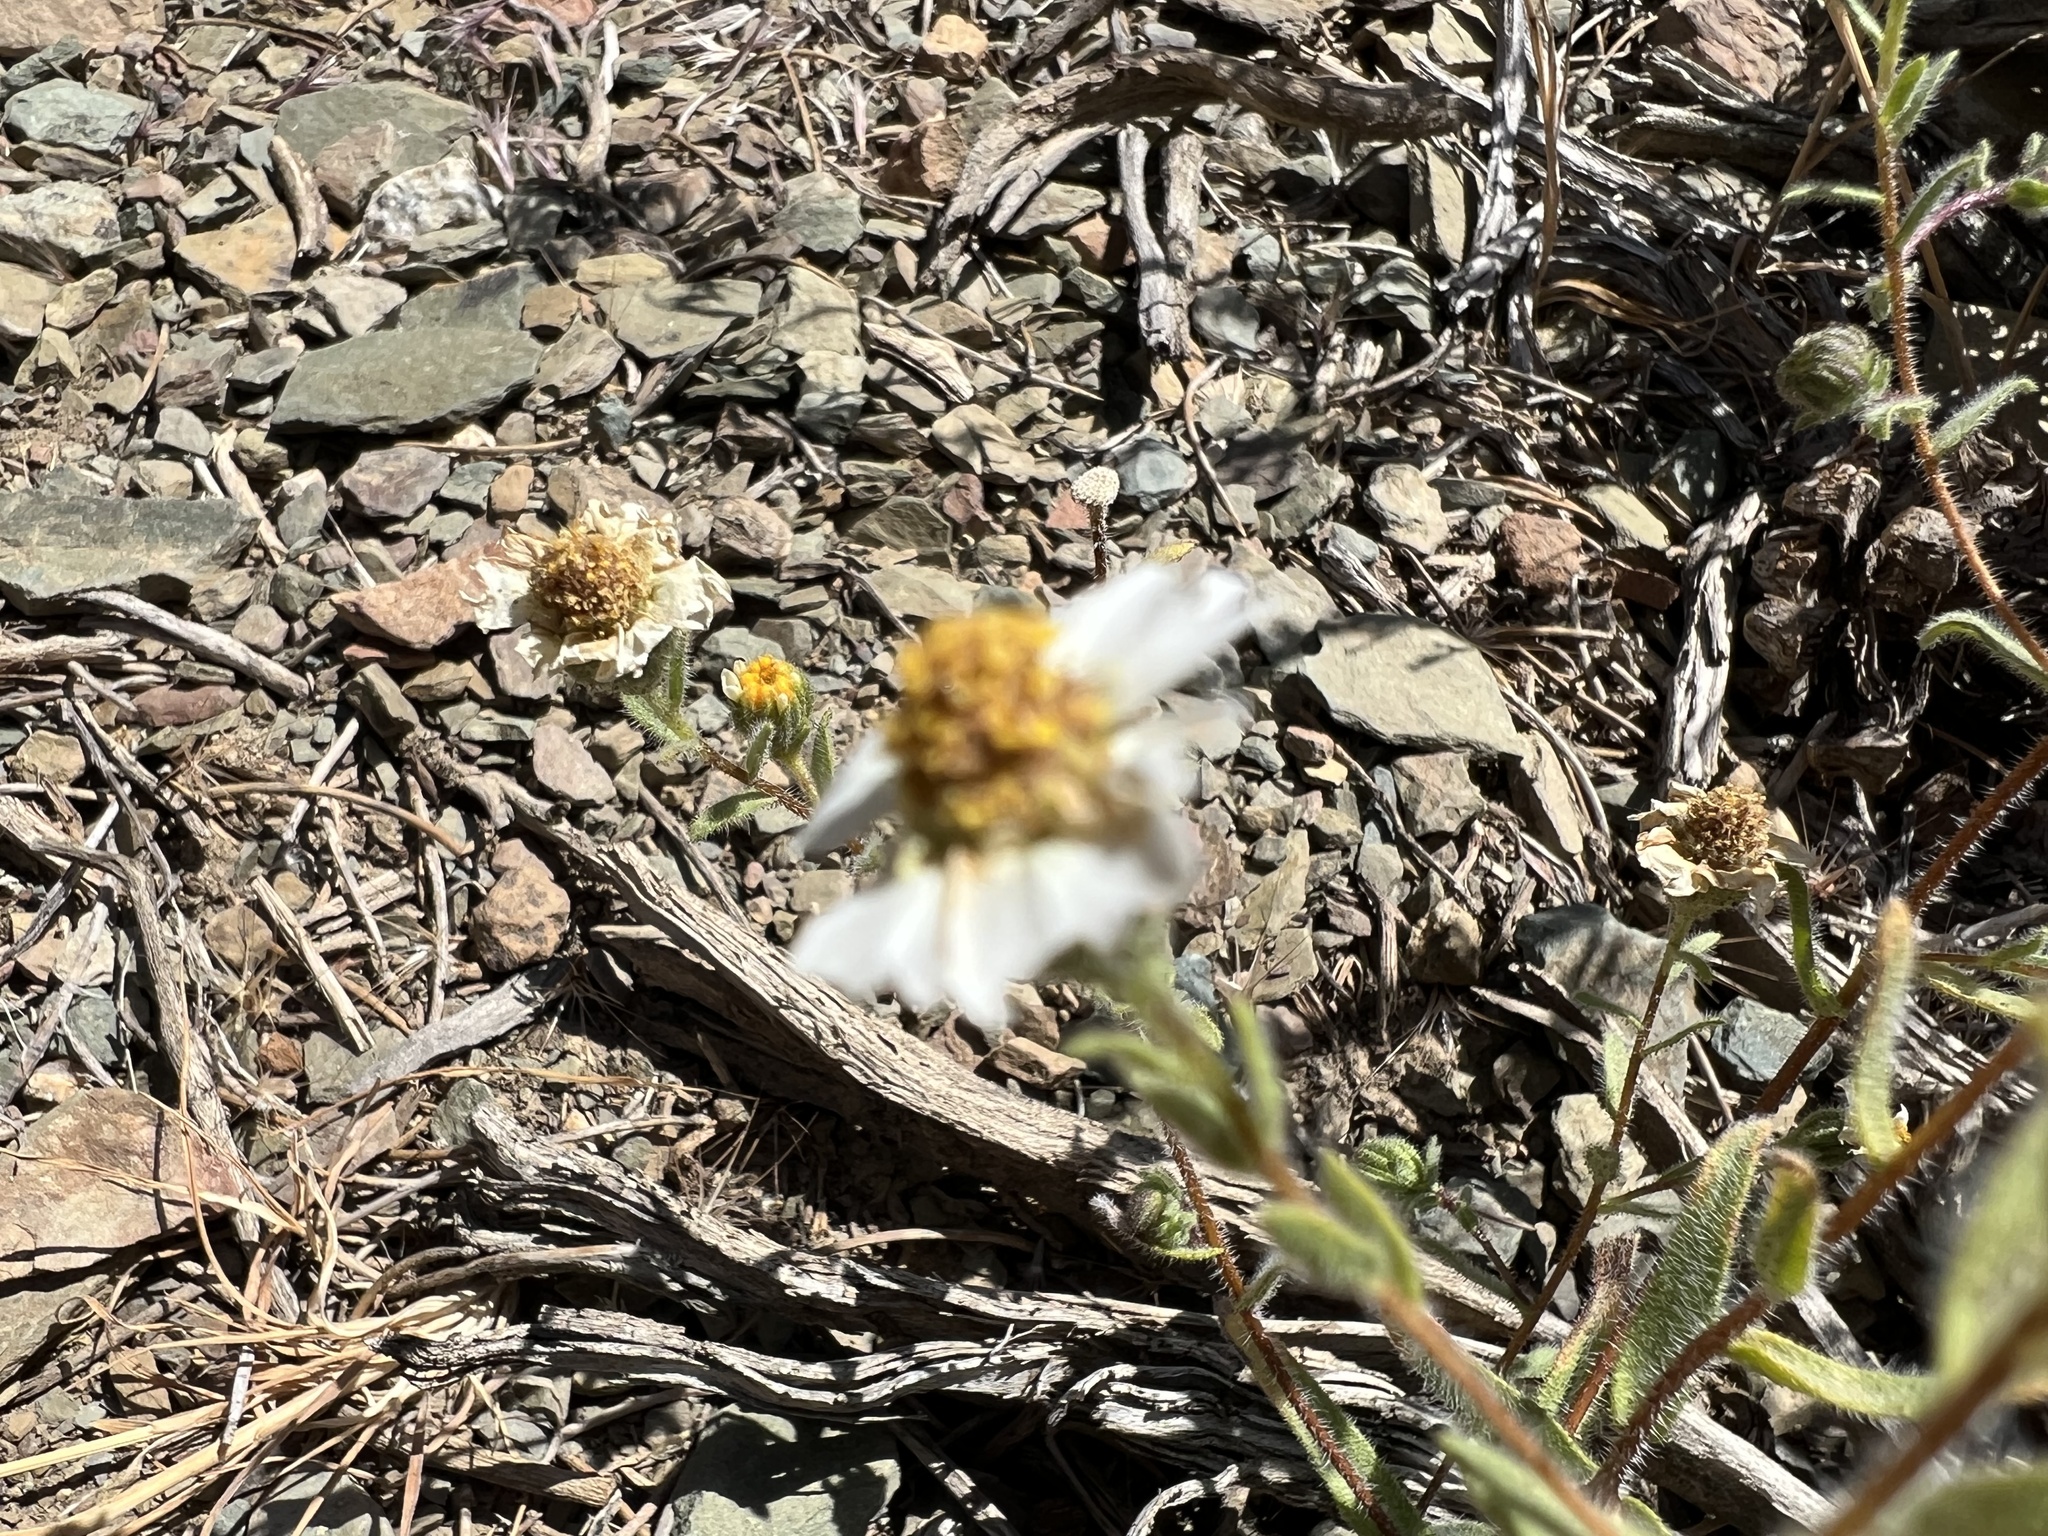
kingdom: Plantae
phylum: Tracheophyta
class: Magnoliopsida
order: Asterales
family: Asteraceae
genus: Layia
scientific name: Layia glandulosa
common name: White layia
